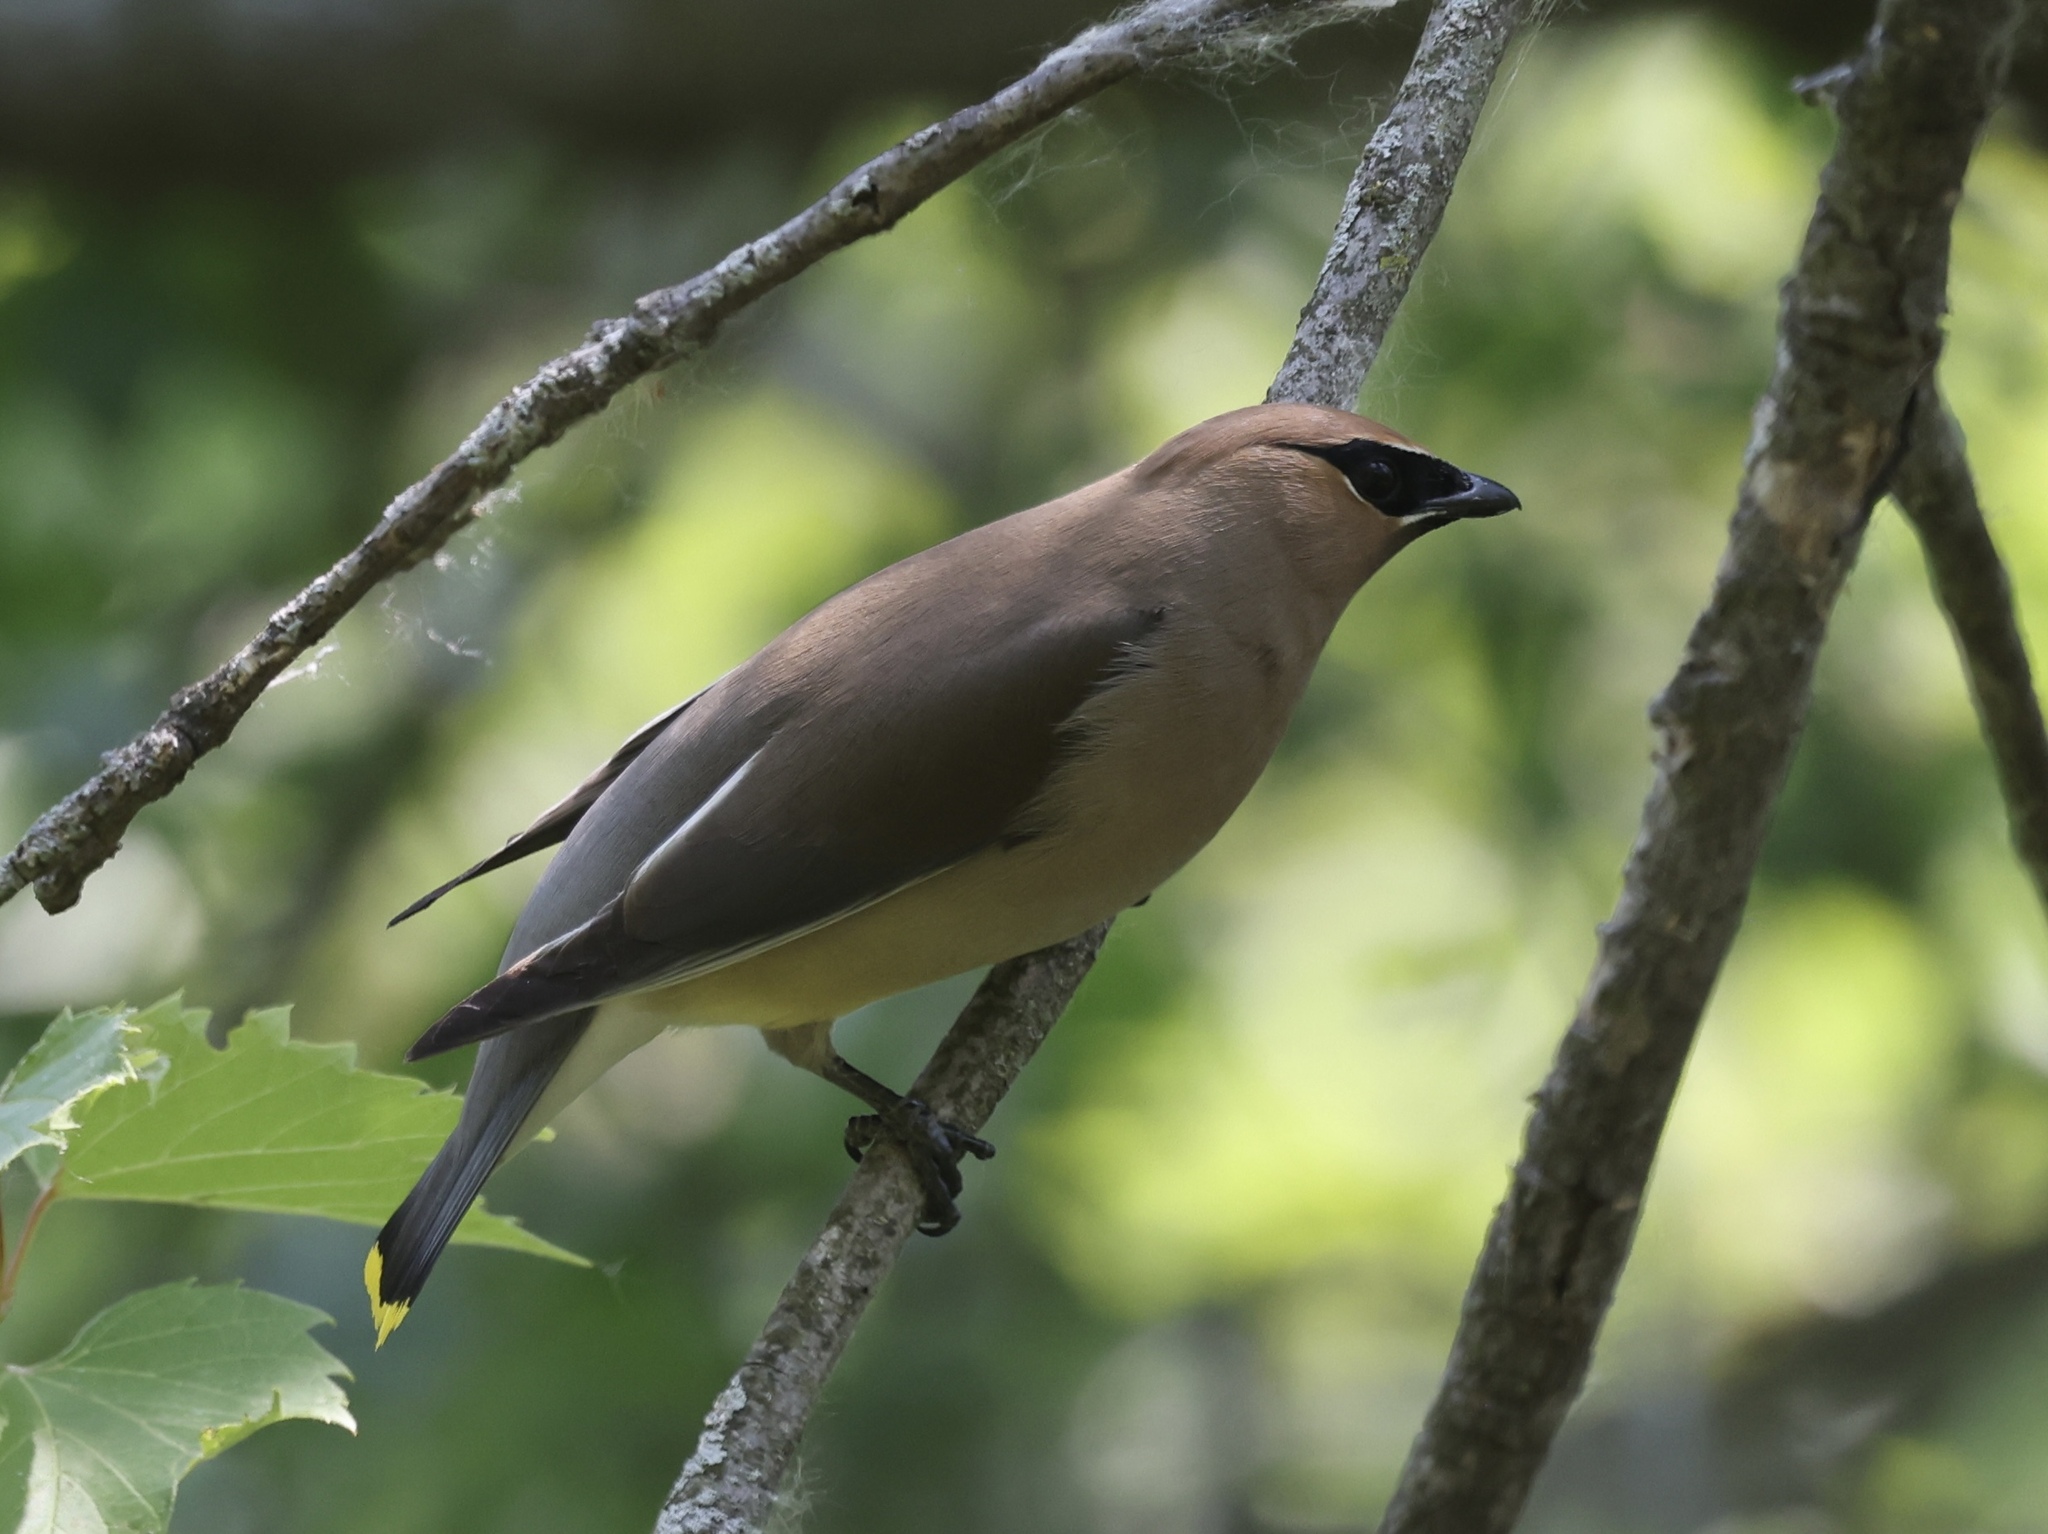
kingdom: Animalia
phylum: Chordata
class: Aves
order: Passeriformes
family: Bombycillidae
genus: Bombycilla
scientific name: Bombycilla cedrorum
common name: Cedar waxwing
